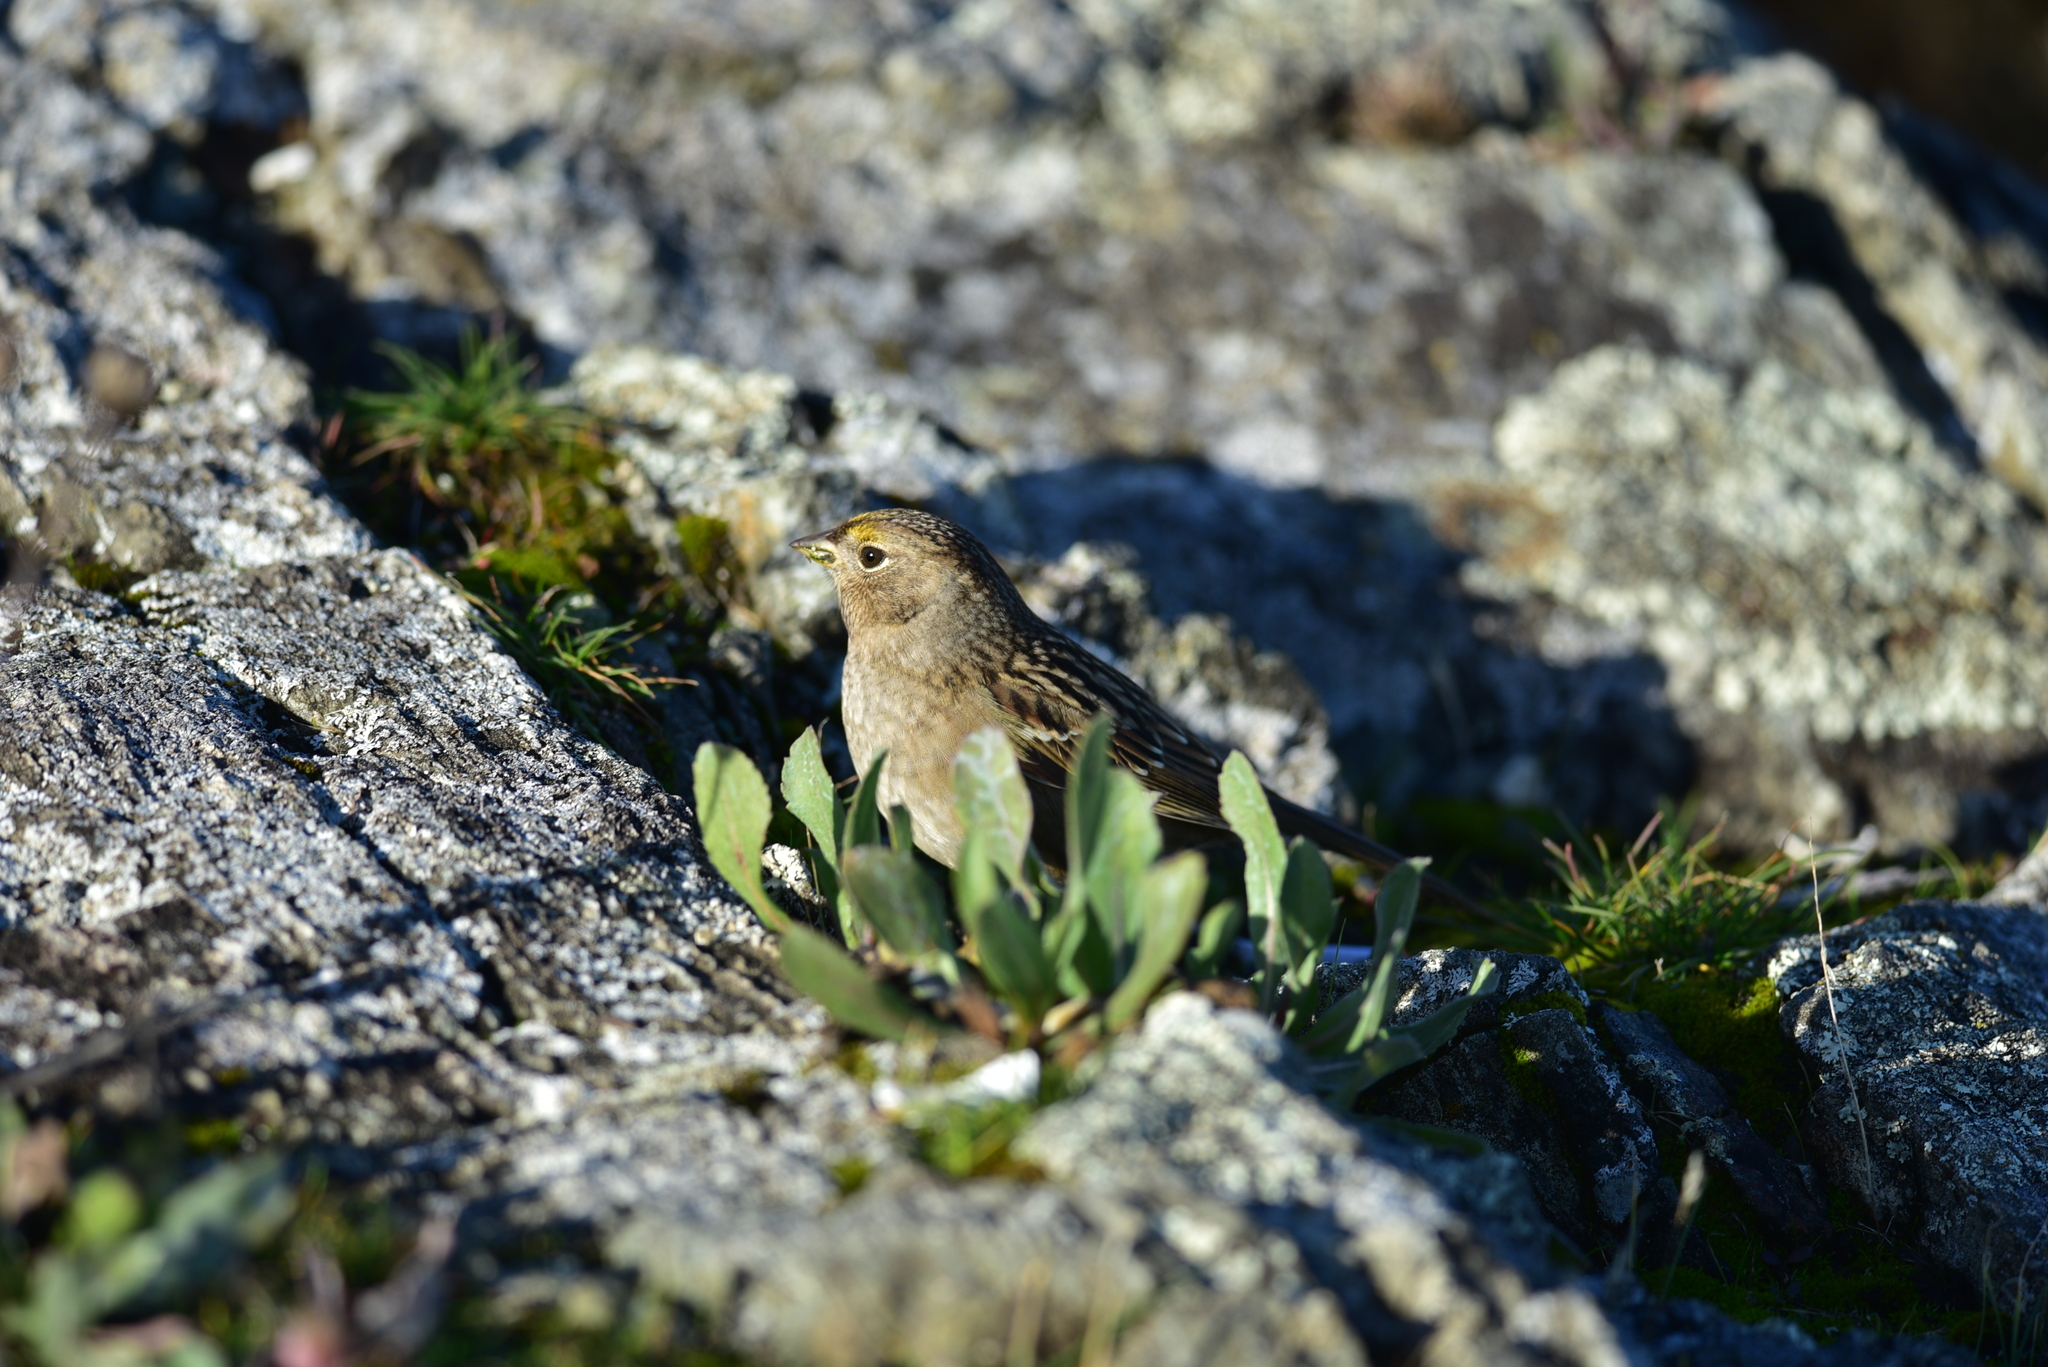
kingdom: Animalia
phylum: Chordata
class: Aves
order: Passeriformes
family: Passerellidae
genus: Zonotrichia
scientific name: Zonotrichia atricapilla
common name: Golden-crowned sparrow
